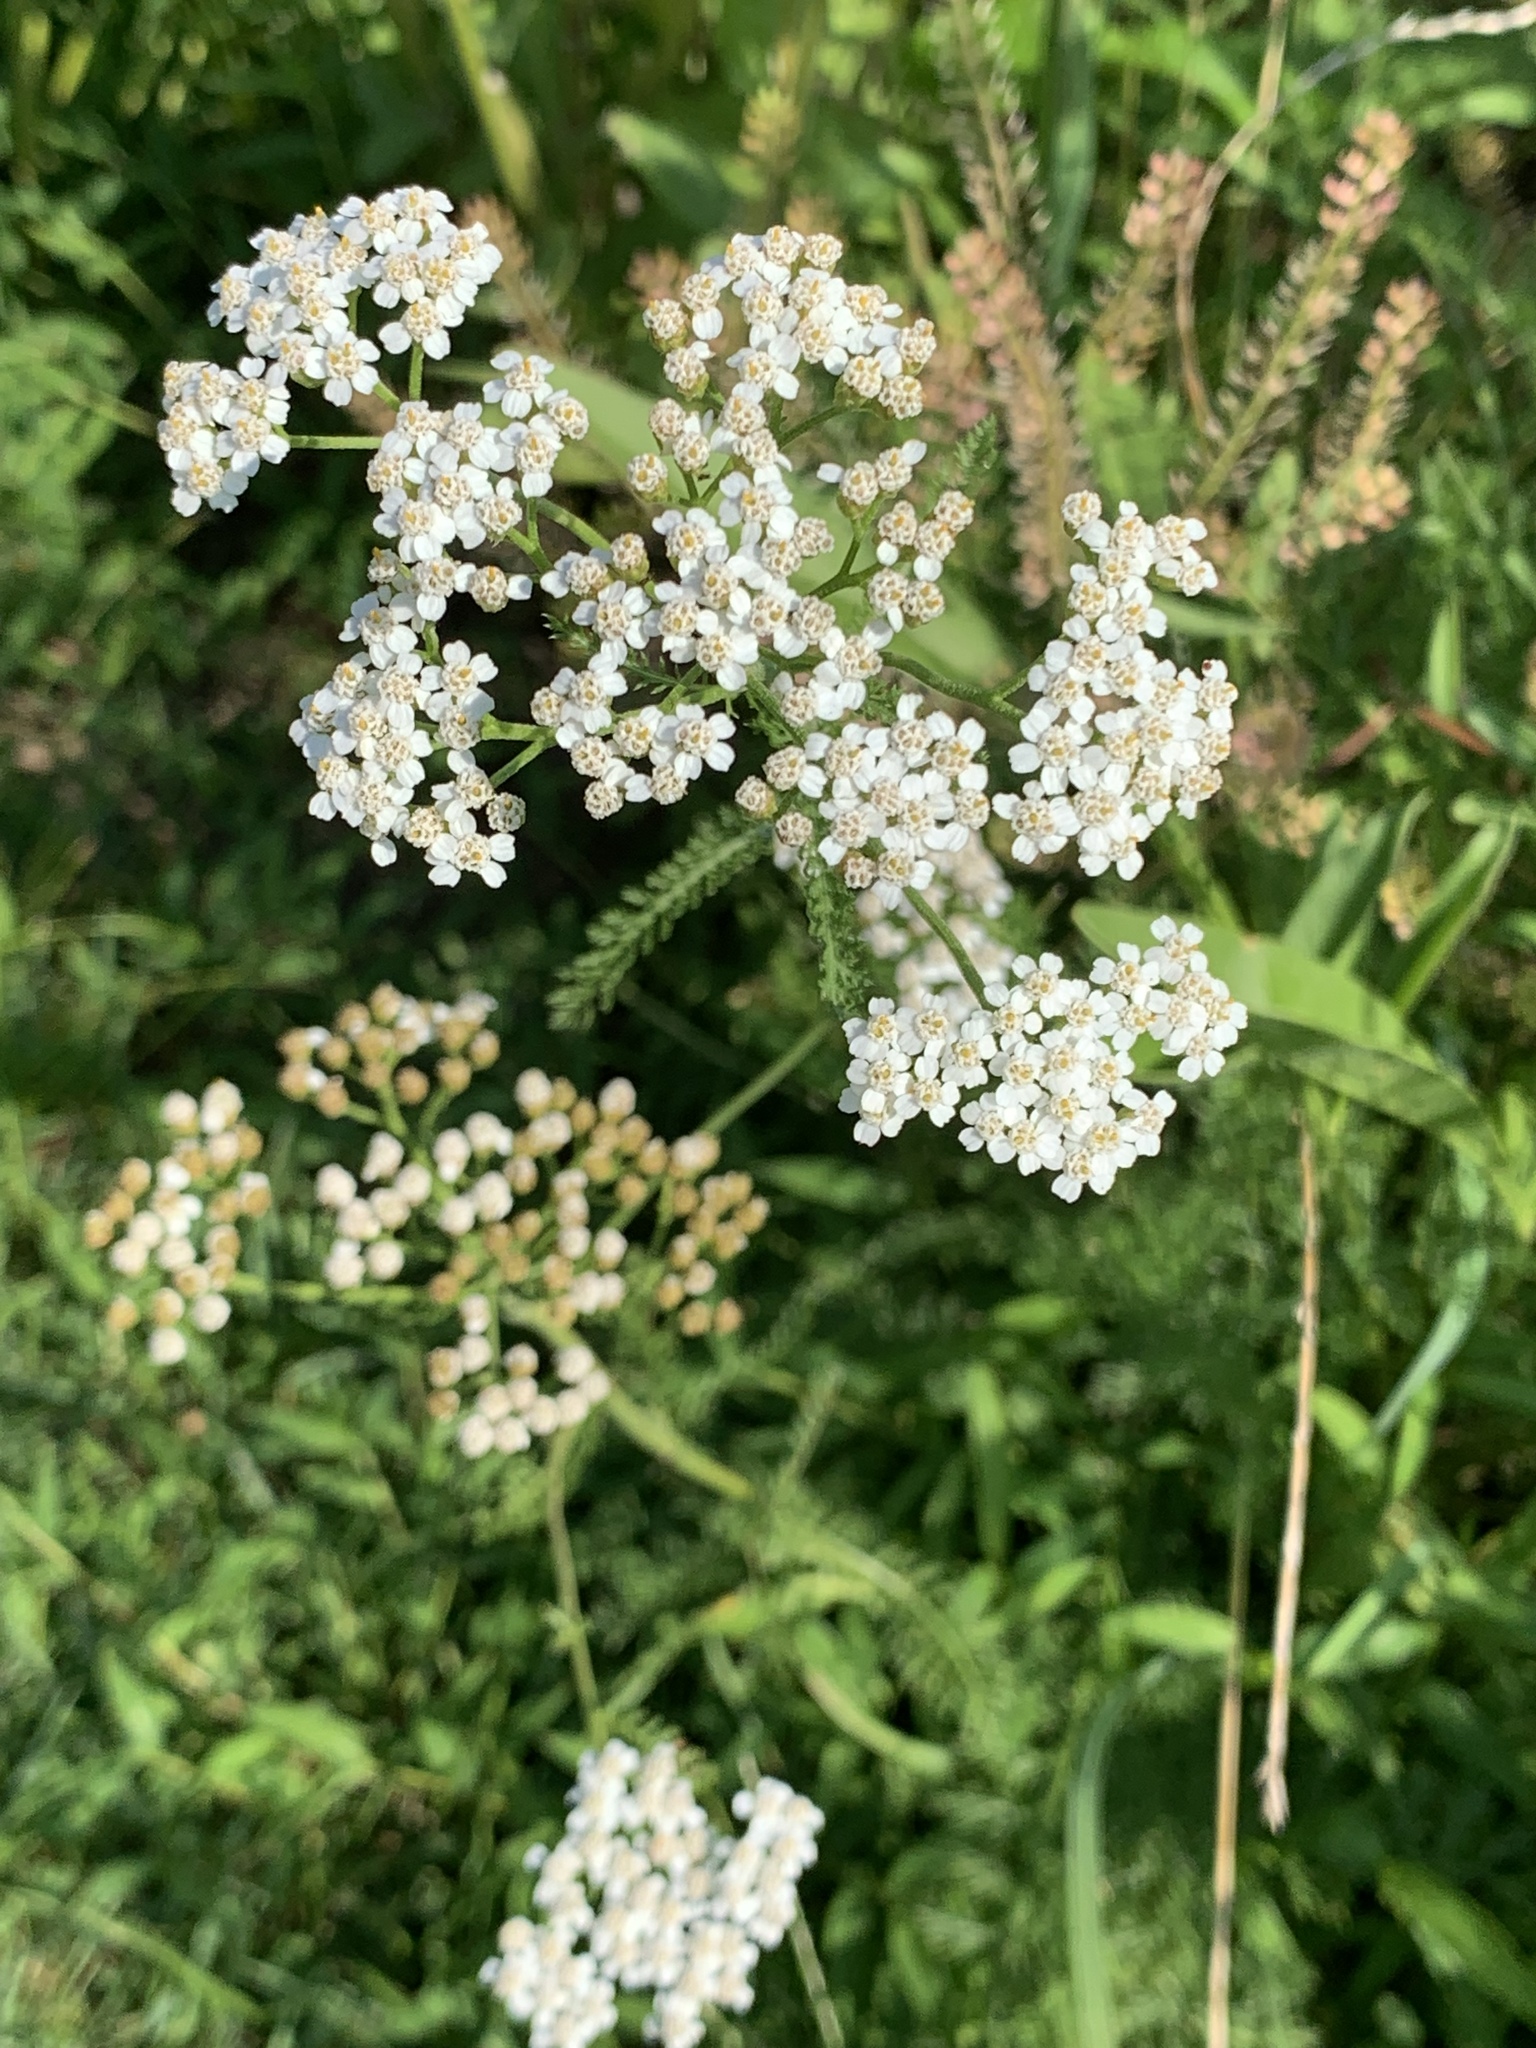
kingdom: Plantae
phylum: Tracheophyta
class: Magnoliopsida
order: Asterales
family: Asteraceae
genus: Achillea
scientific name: Achillea millefolium
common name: Yarrow
